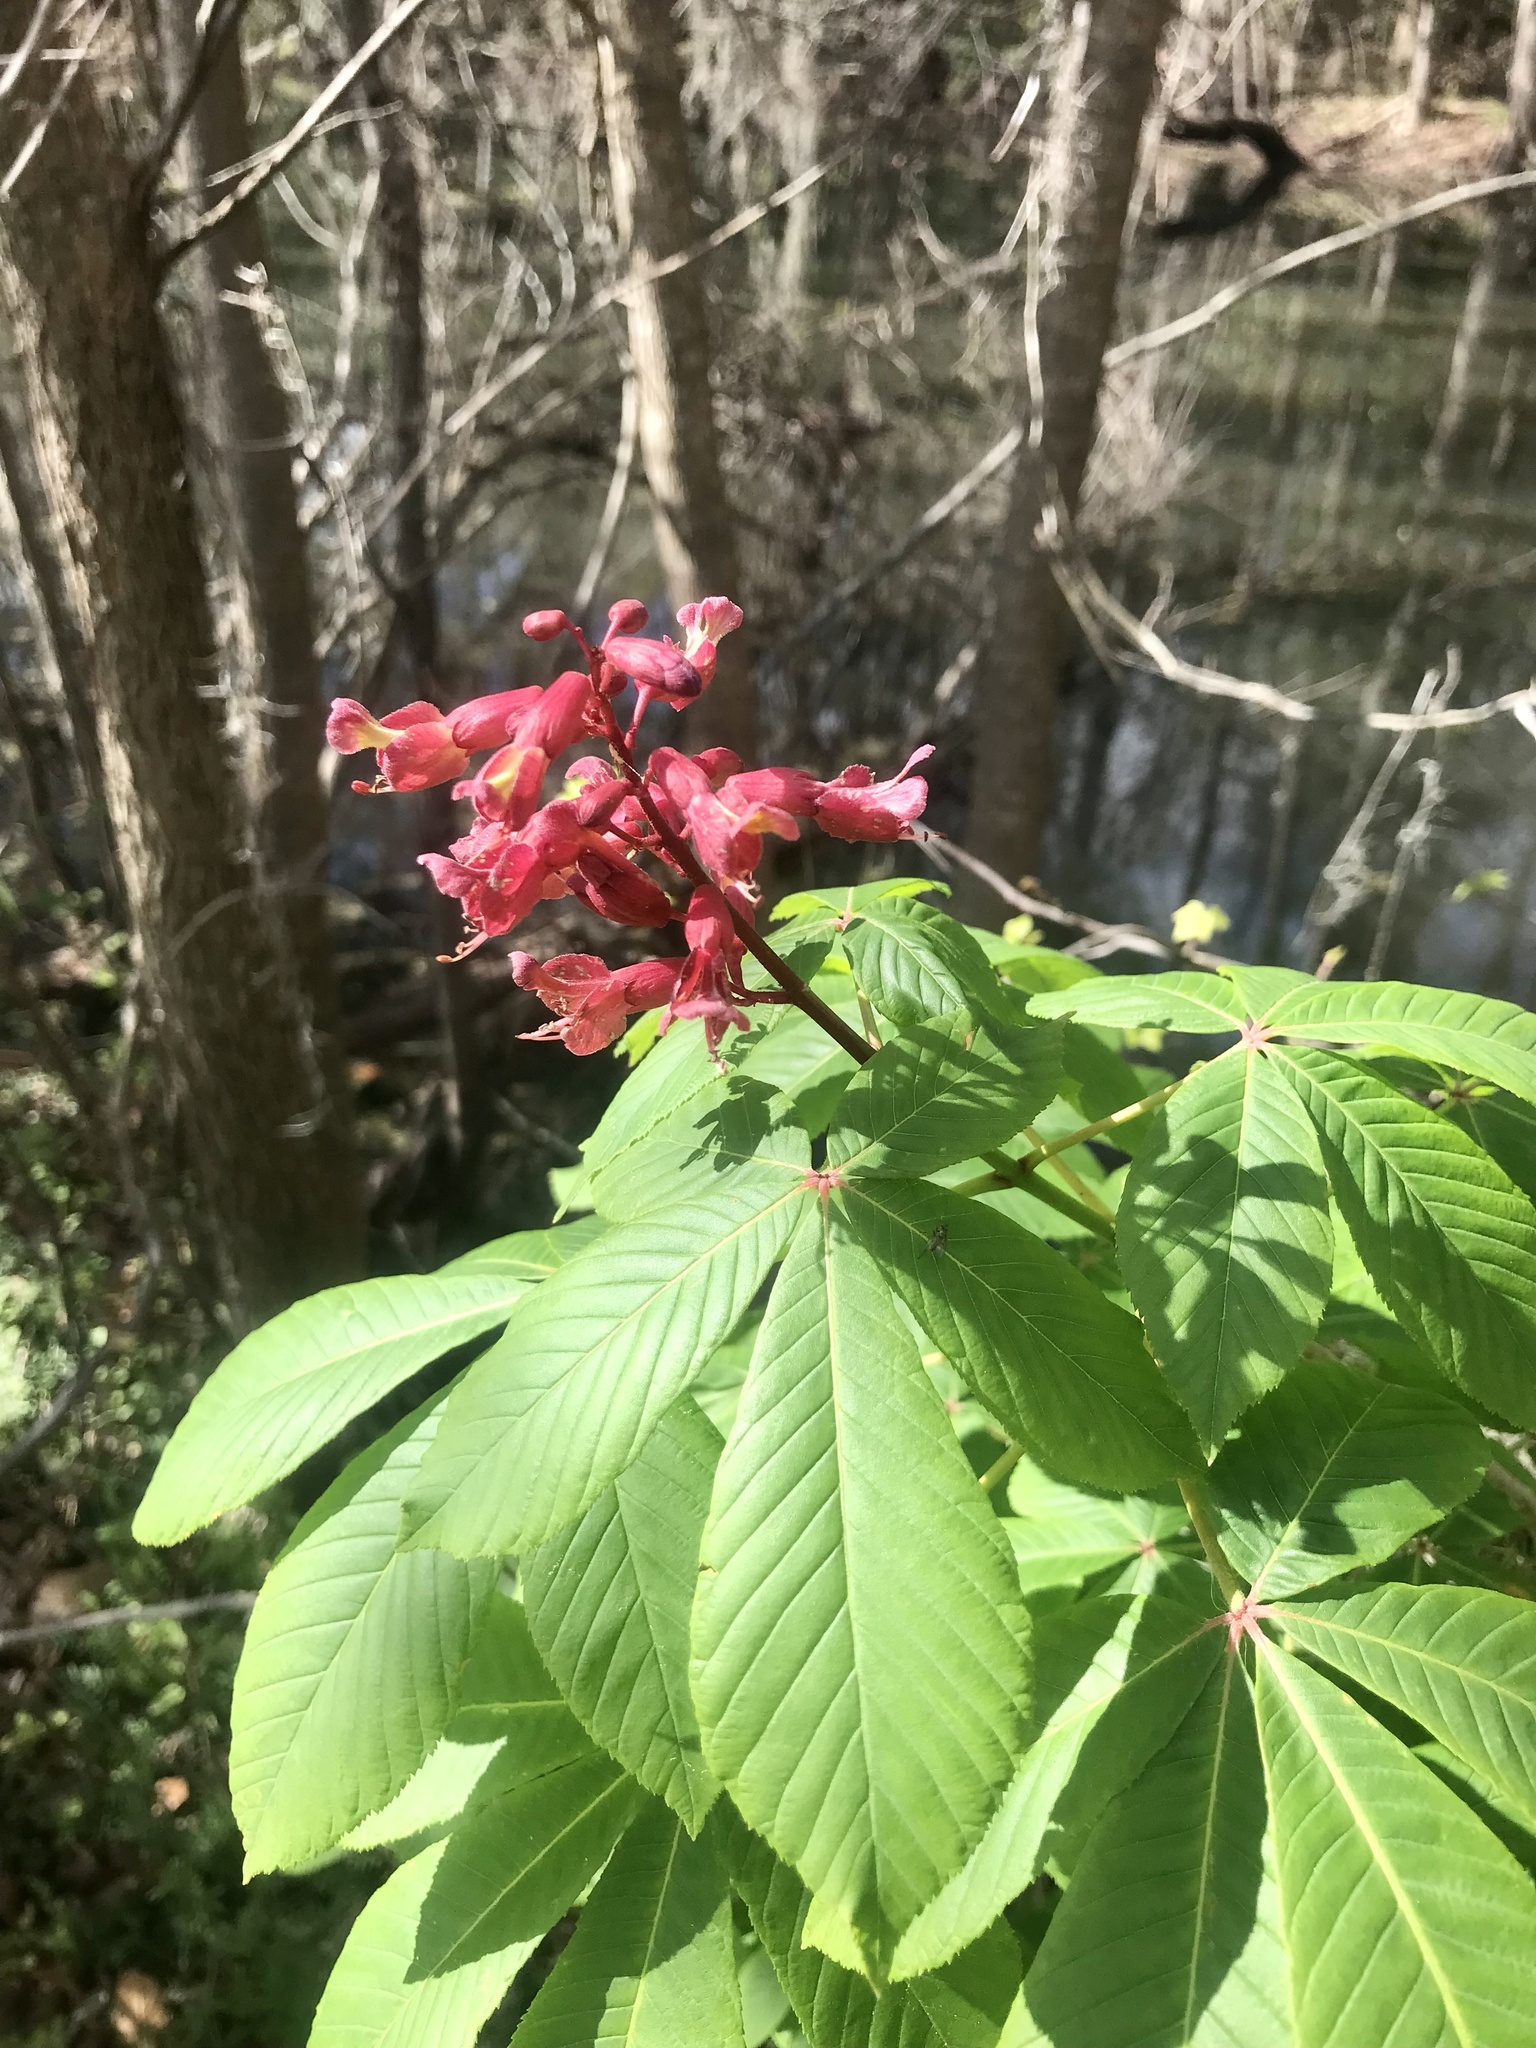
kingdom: Plantae
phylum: Tracheophyta
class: Magnoliopsida
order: Sapindales
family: Sapindaceae
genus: Aesculus
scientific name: Aesculus pavia
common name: Red buckeye
